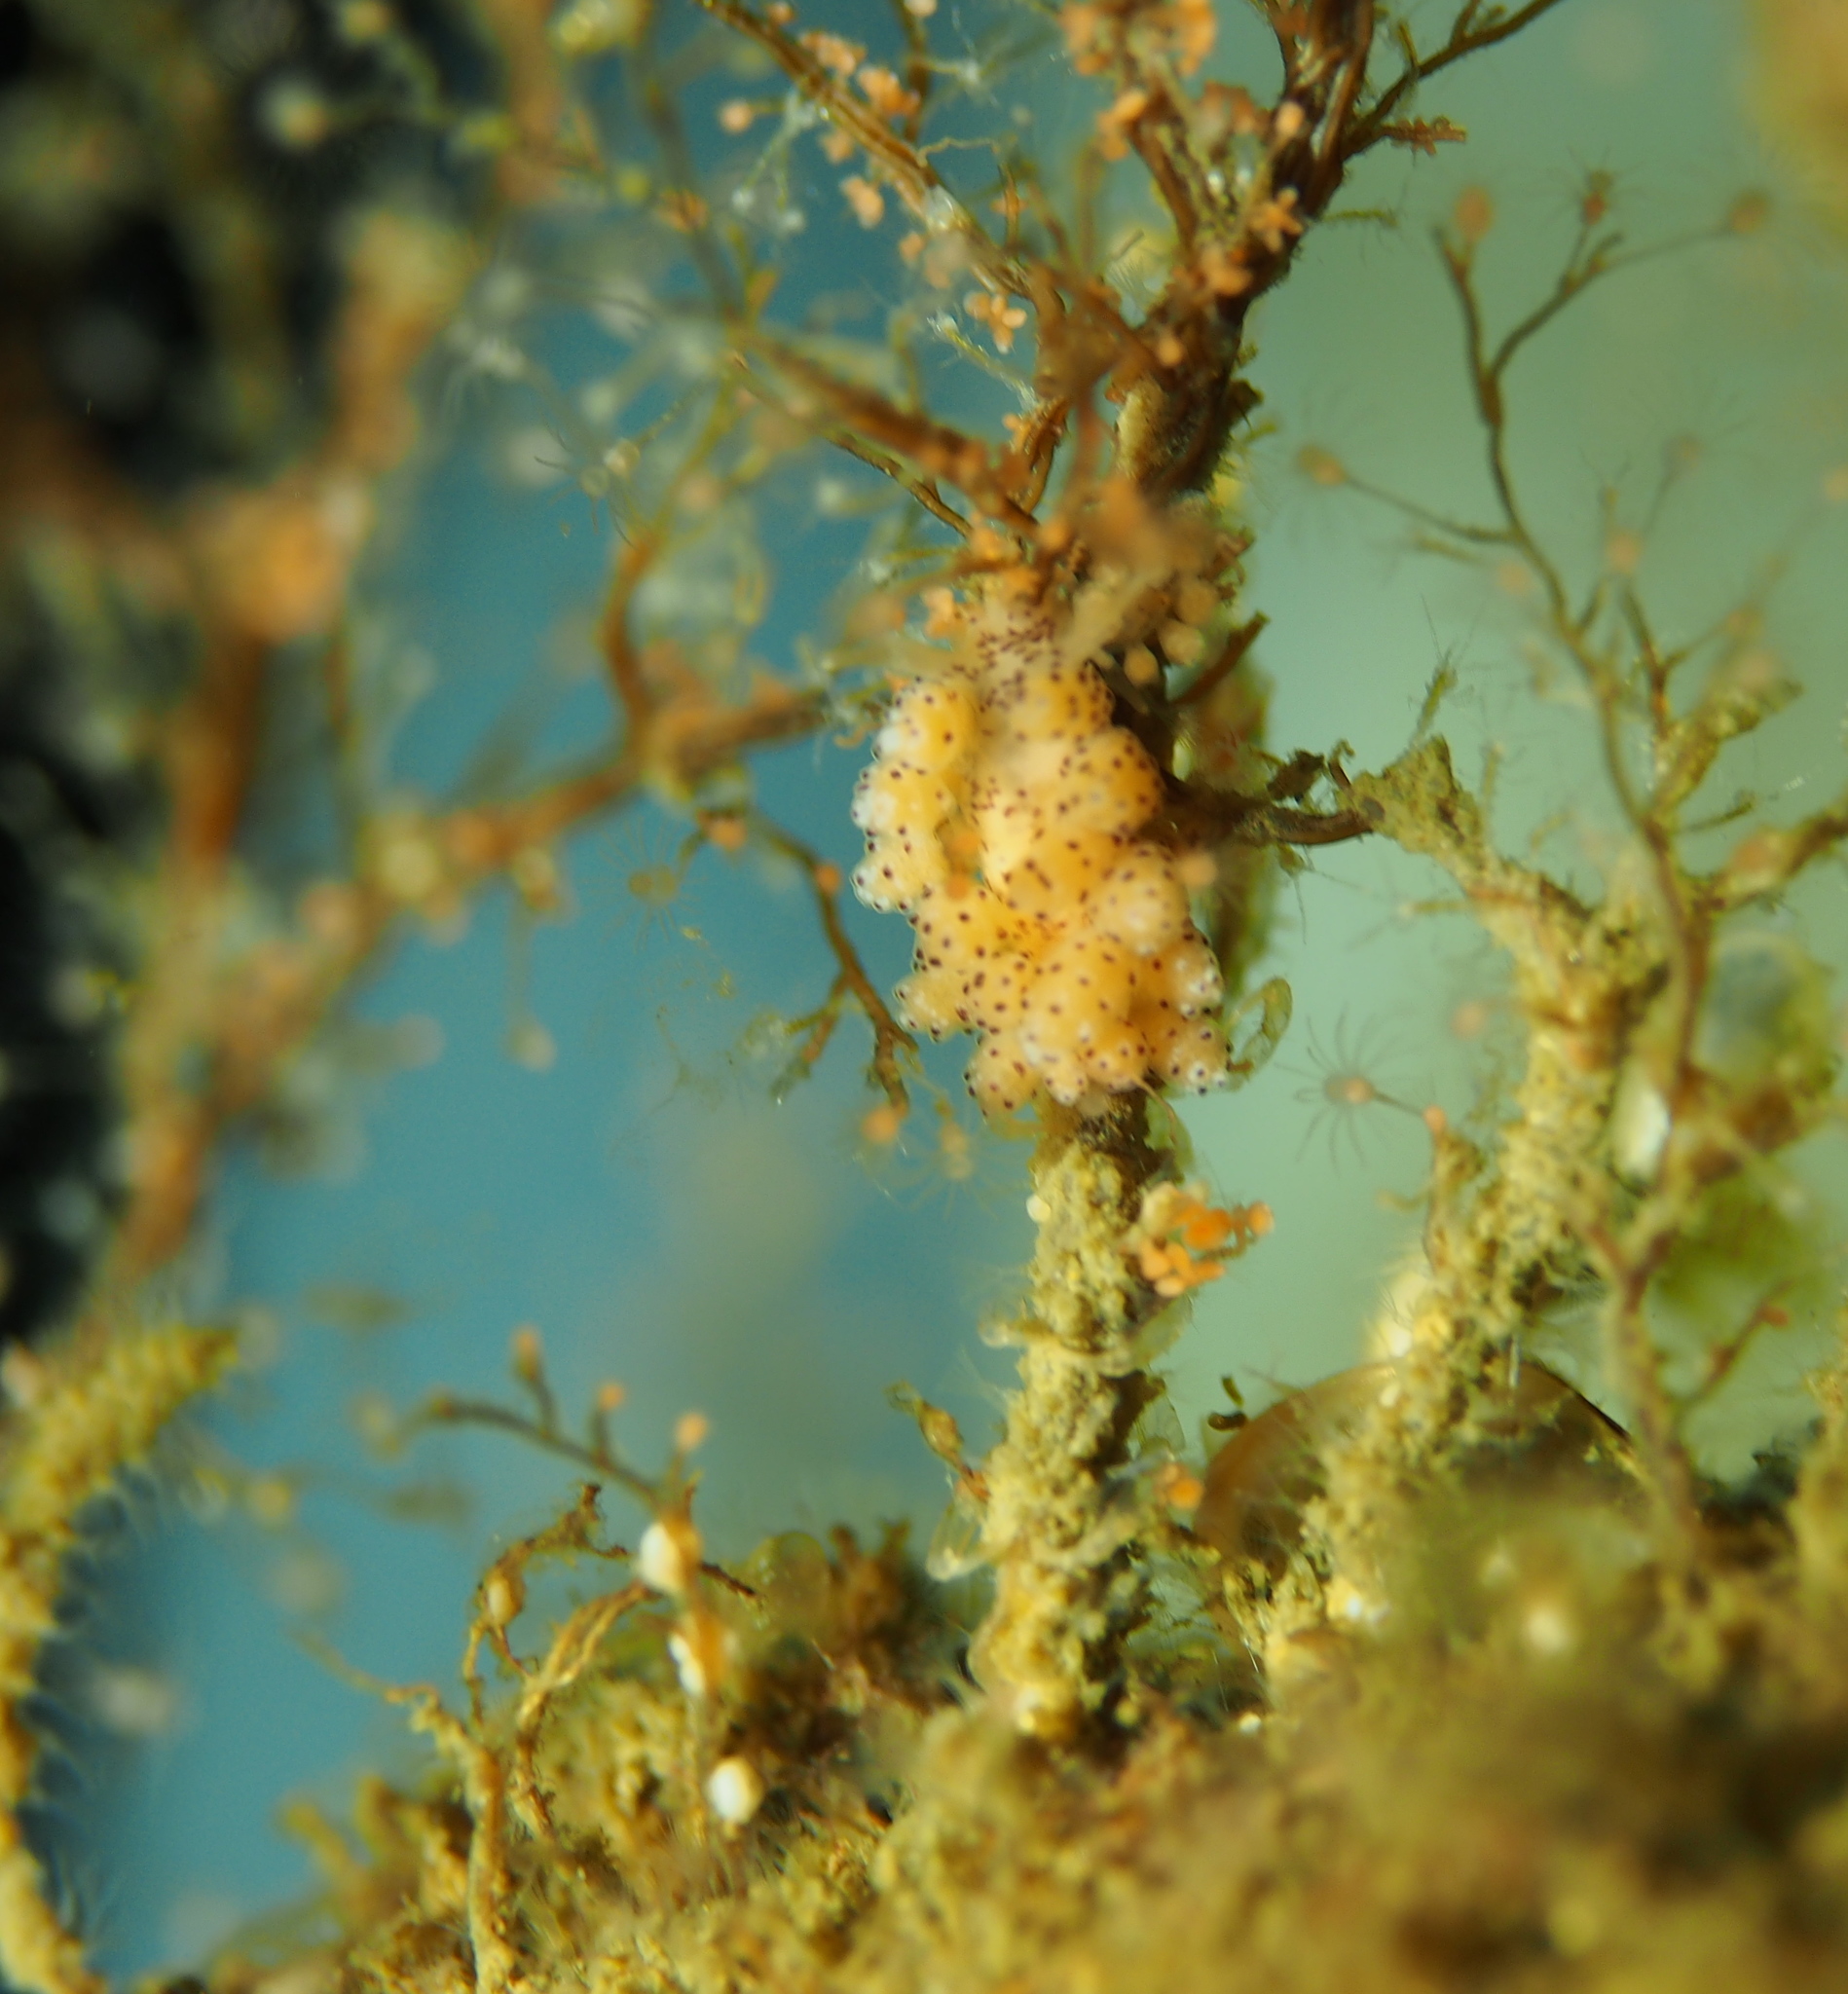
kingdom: Animalia
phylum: Mollusca
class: Gastropoda
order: Nudibranchia
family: Dotidae
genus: Doto
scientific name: Doto dunnei
